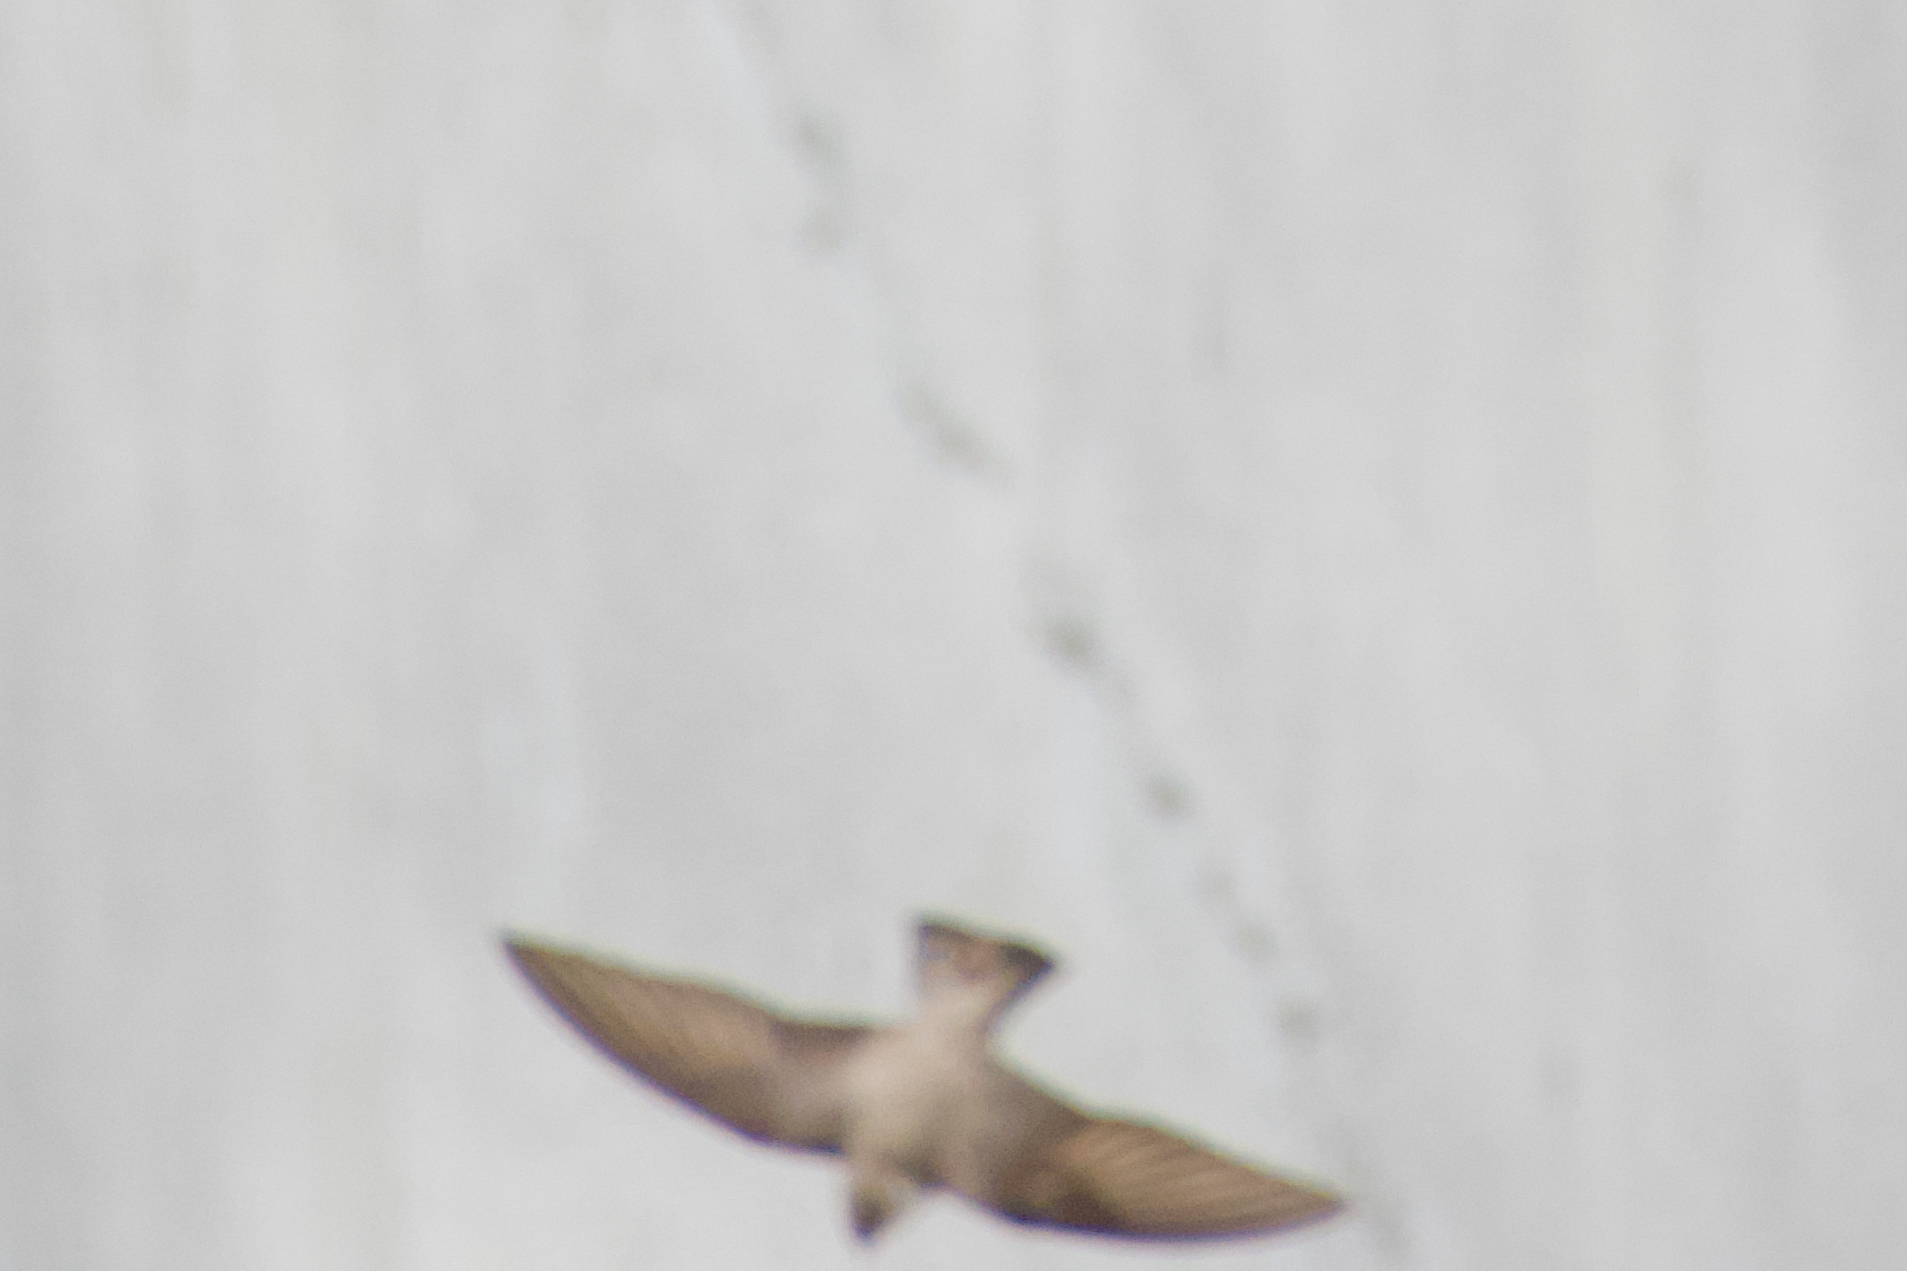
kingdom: Animalia
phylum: Chordata
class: Aves
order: Passeriformes
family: Hirundinidae
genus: Ptyonoprogne
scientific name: Ptyonoprogne rupestris
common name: Eurasian crag martin
